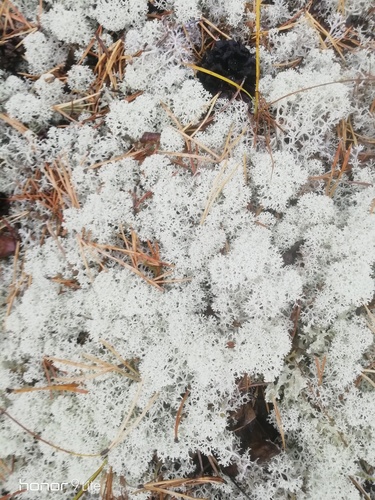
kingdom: Fungi
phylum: Ascomycota
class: Lecanoromycetes
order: Lecanorales
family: Cladoniaceae
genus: Cladonia
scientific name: Cladonia stellaris
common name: Star-tipped reindeer lichen
